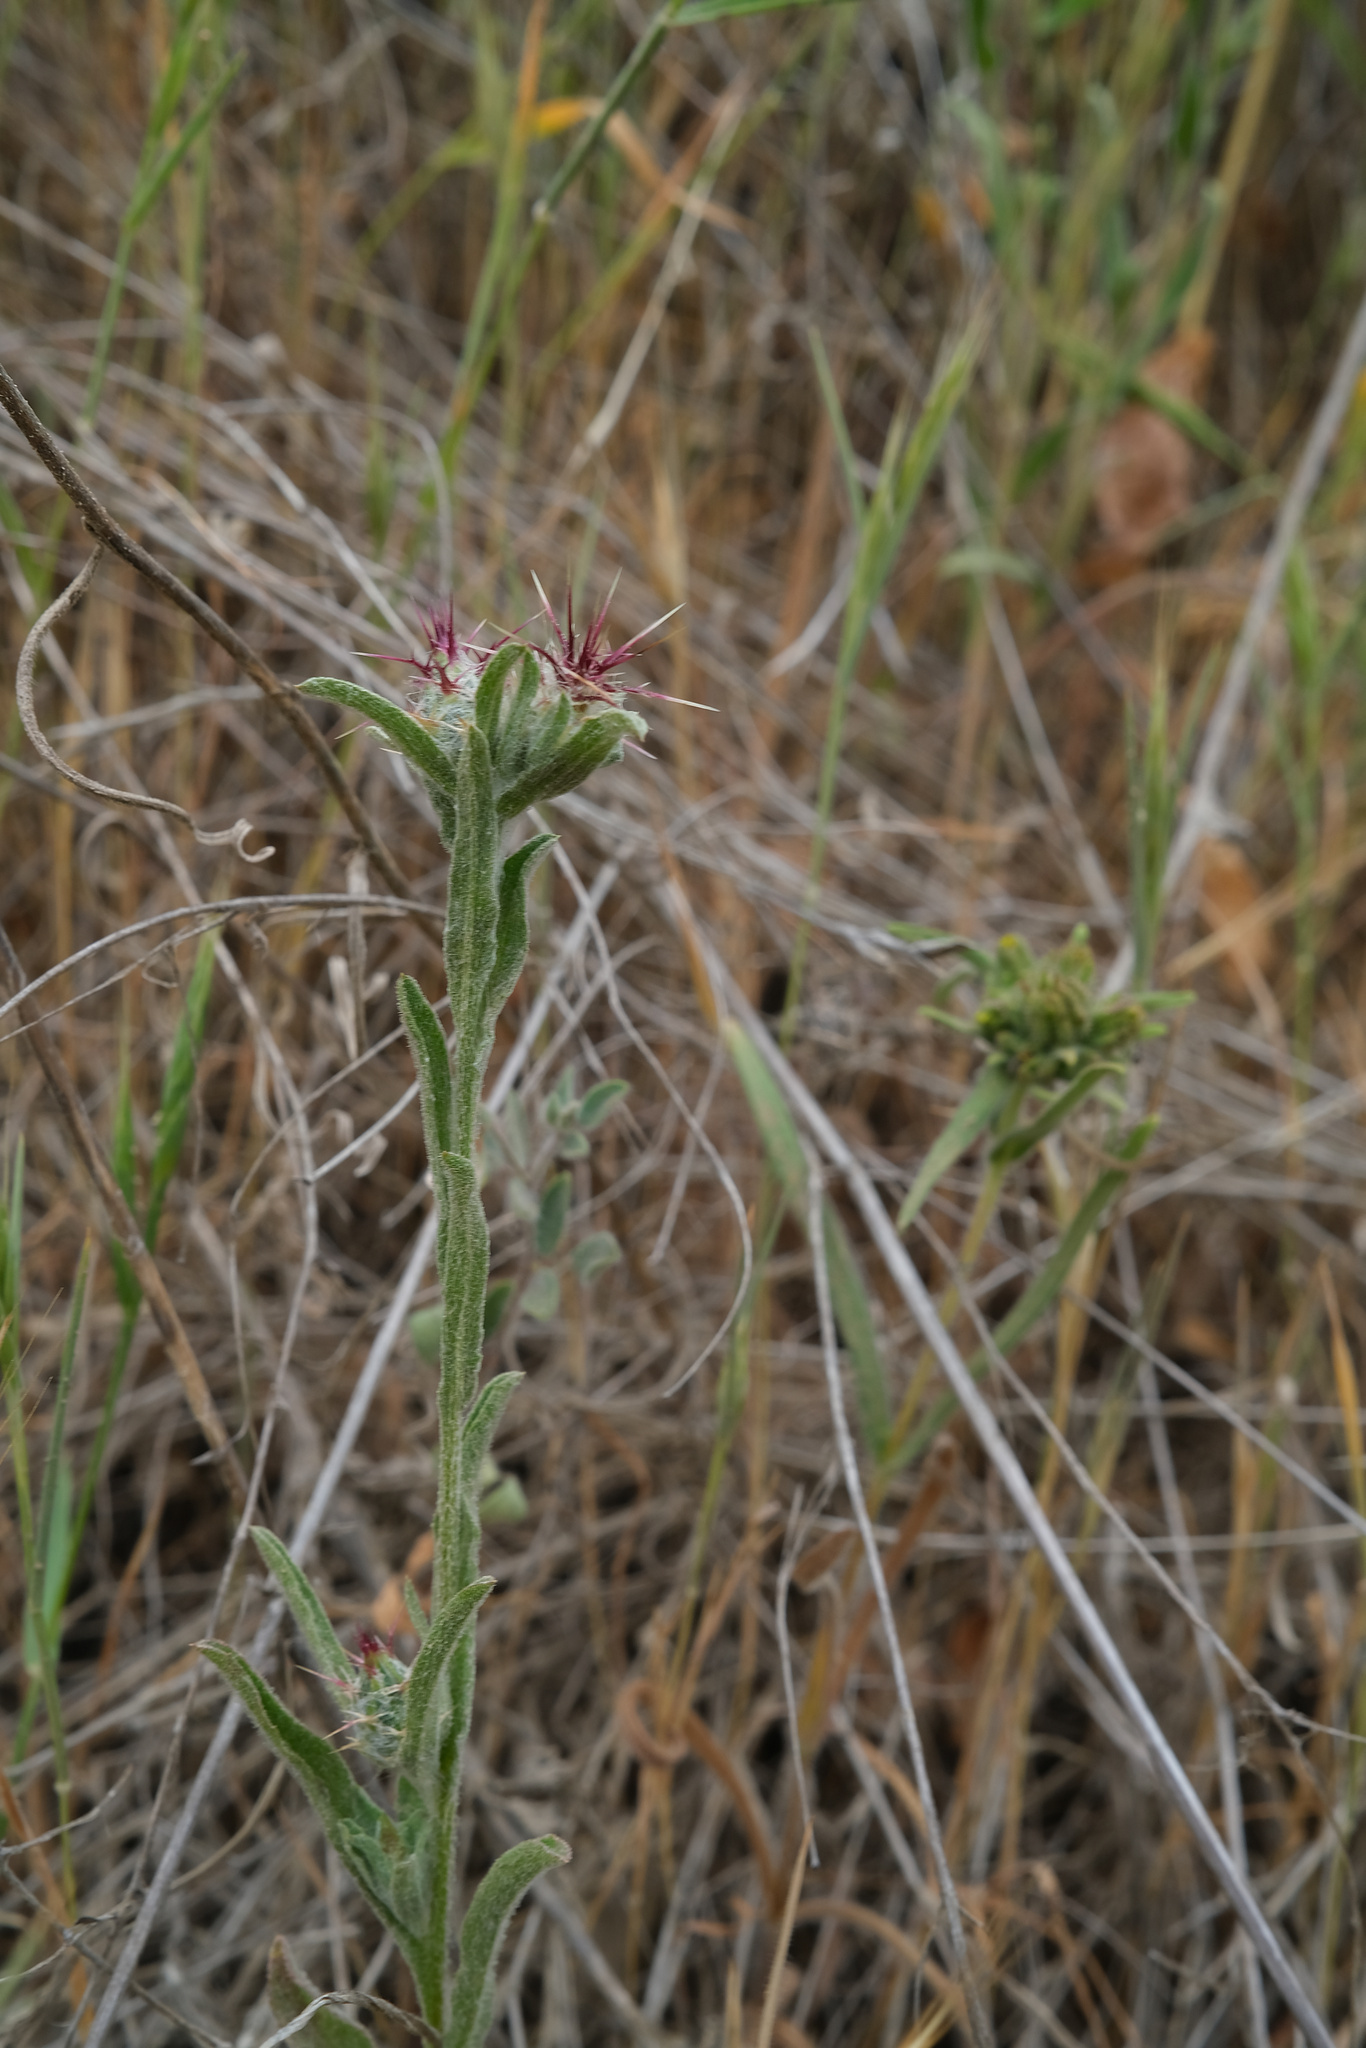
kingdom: Plantae
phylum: Tracheophyta
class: Magnoliopsida
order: Asterales
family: Asteraceae
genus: Centaurea
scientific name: Centaurea melitensis
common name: Maltese star-thistle
